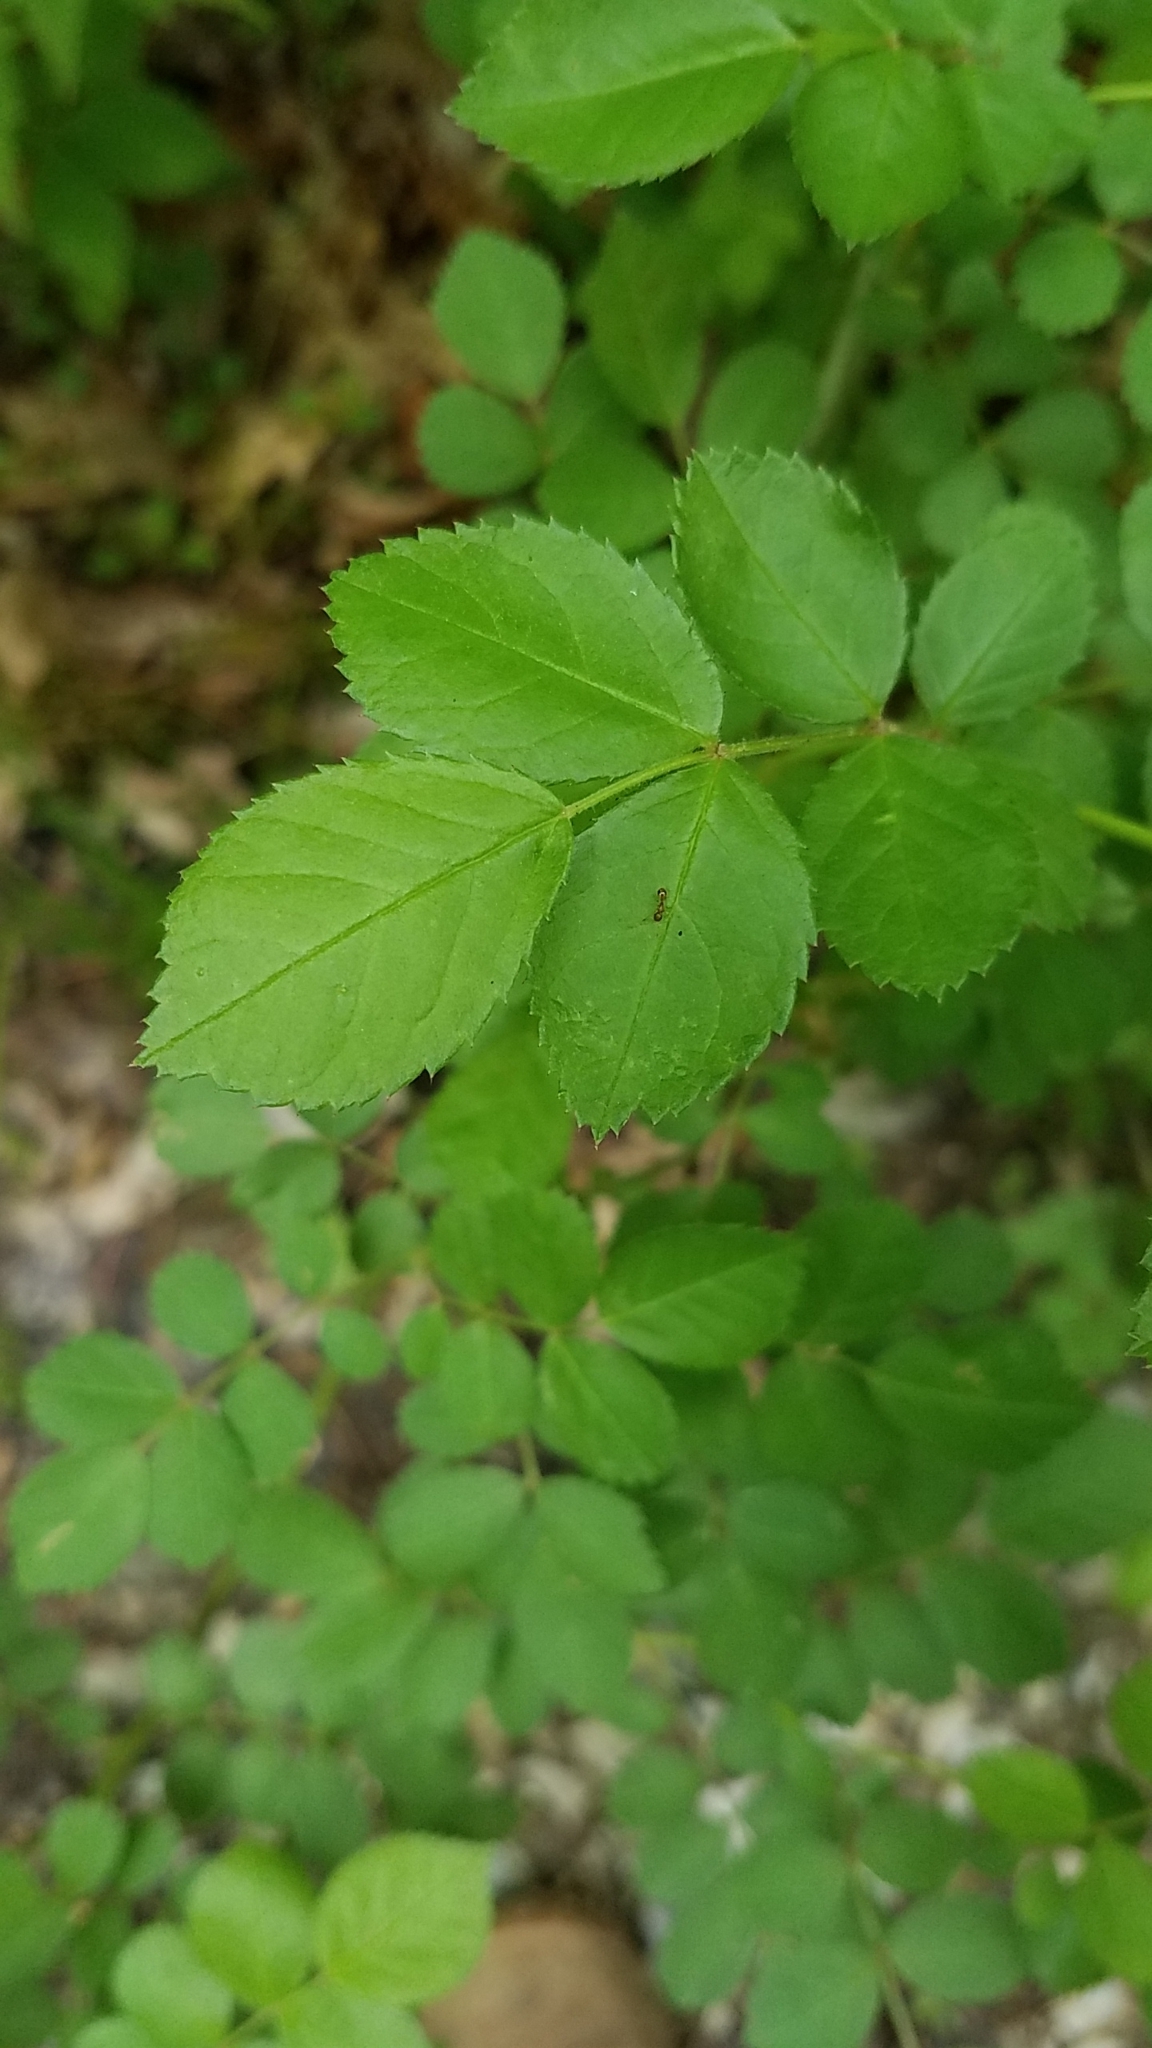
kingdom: Plantae
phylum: Tracheophyta
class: Magnoliopsida
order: Rosales
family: Rosaceae
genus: Rosa
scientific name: Rosa multiflora
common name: Multiflora rose
